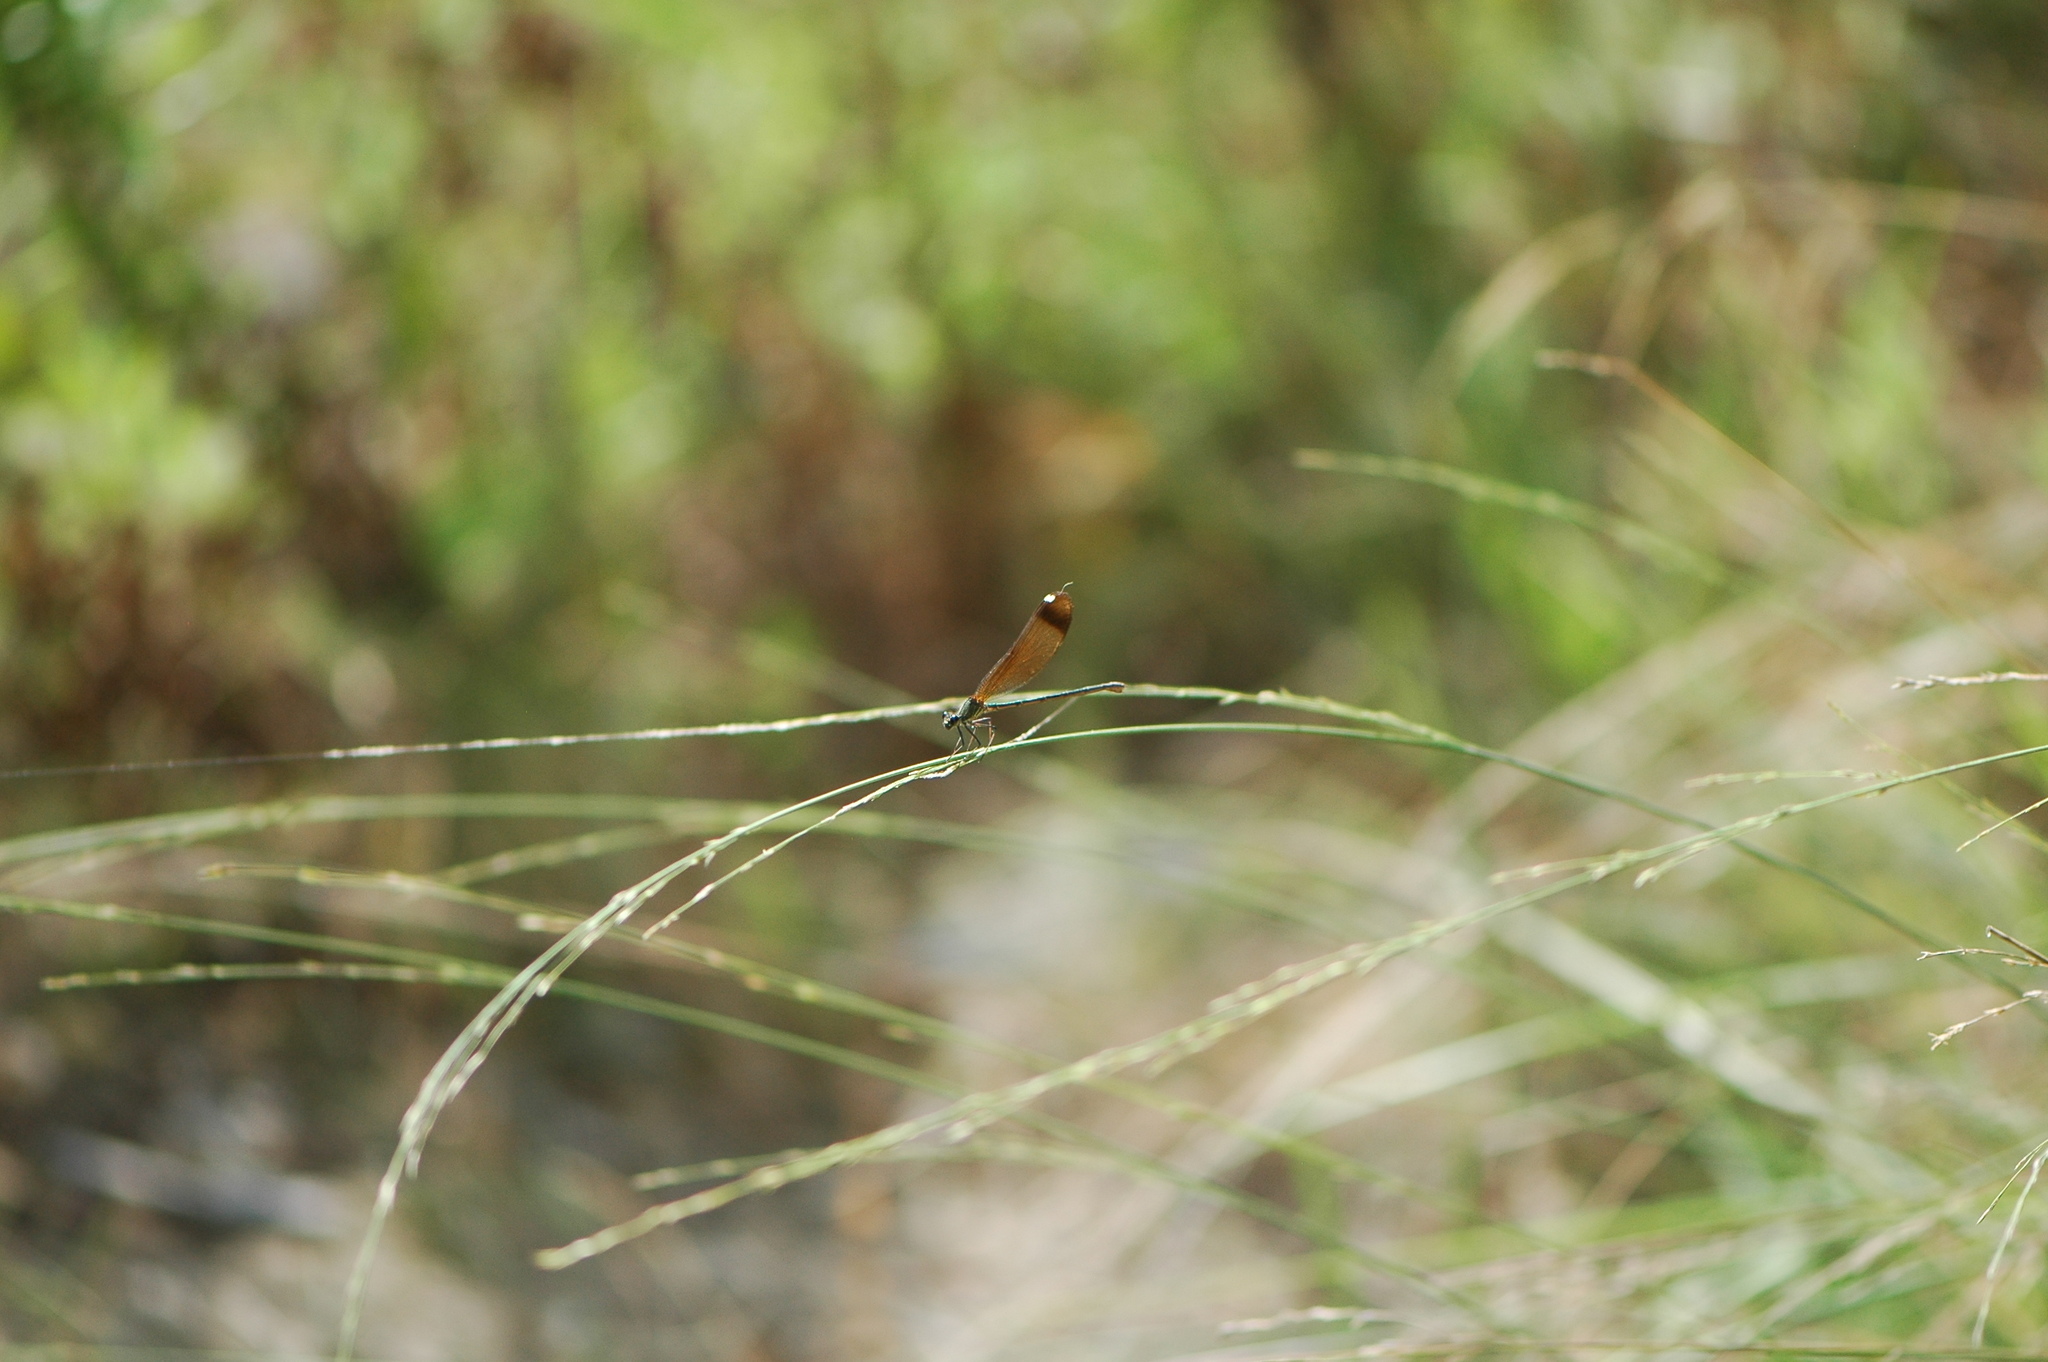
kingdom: Animalia
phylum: Arthropoda
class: Insecta
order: Odonata
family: Calopterygidae
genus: Calopteryx
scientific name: Calopteryx haemorrhoidalis
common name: Copper demoiselle
